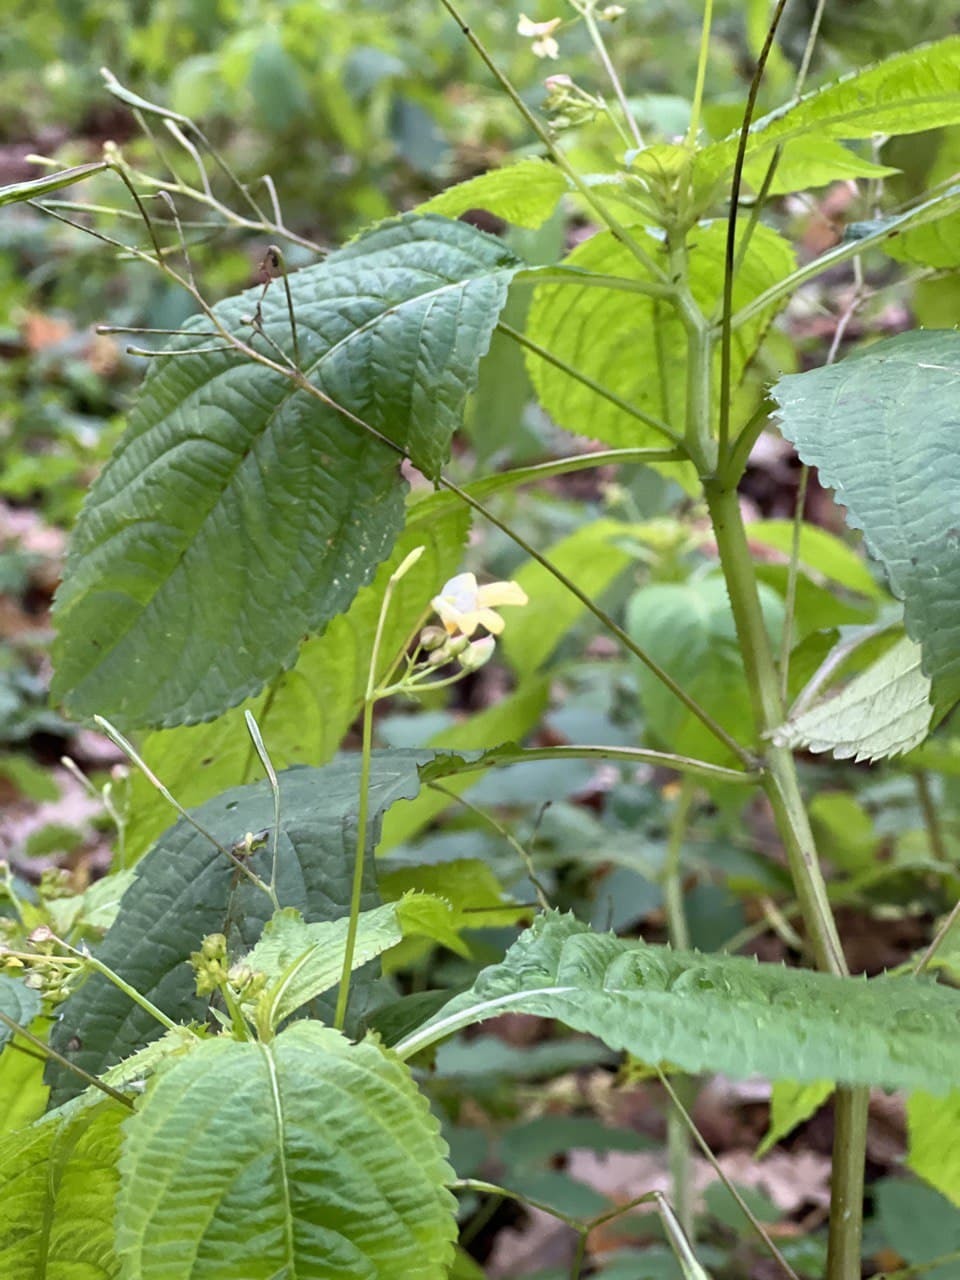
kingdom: Plantae
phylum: Tracheophyta
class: Magnoliopsida
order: Ericales
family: Balsaminaceae
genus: Impatiens
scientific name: Impatiens parviflora
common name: Small balsam
